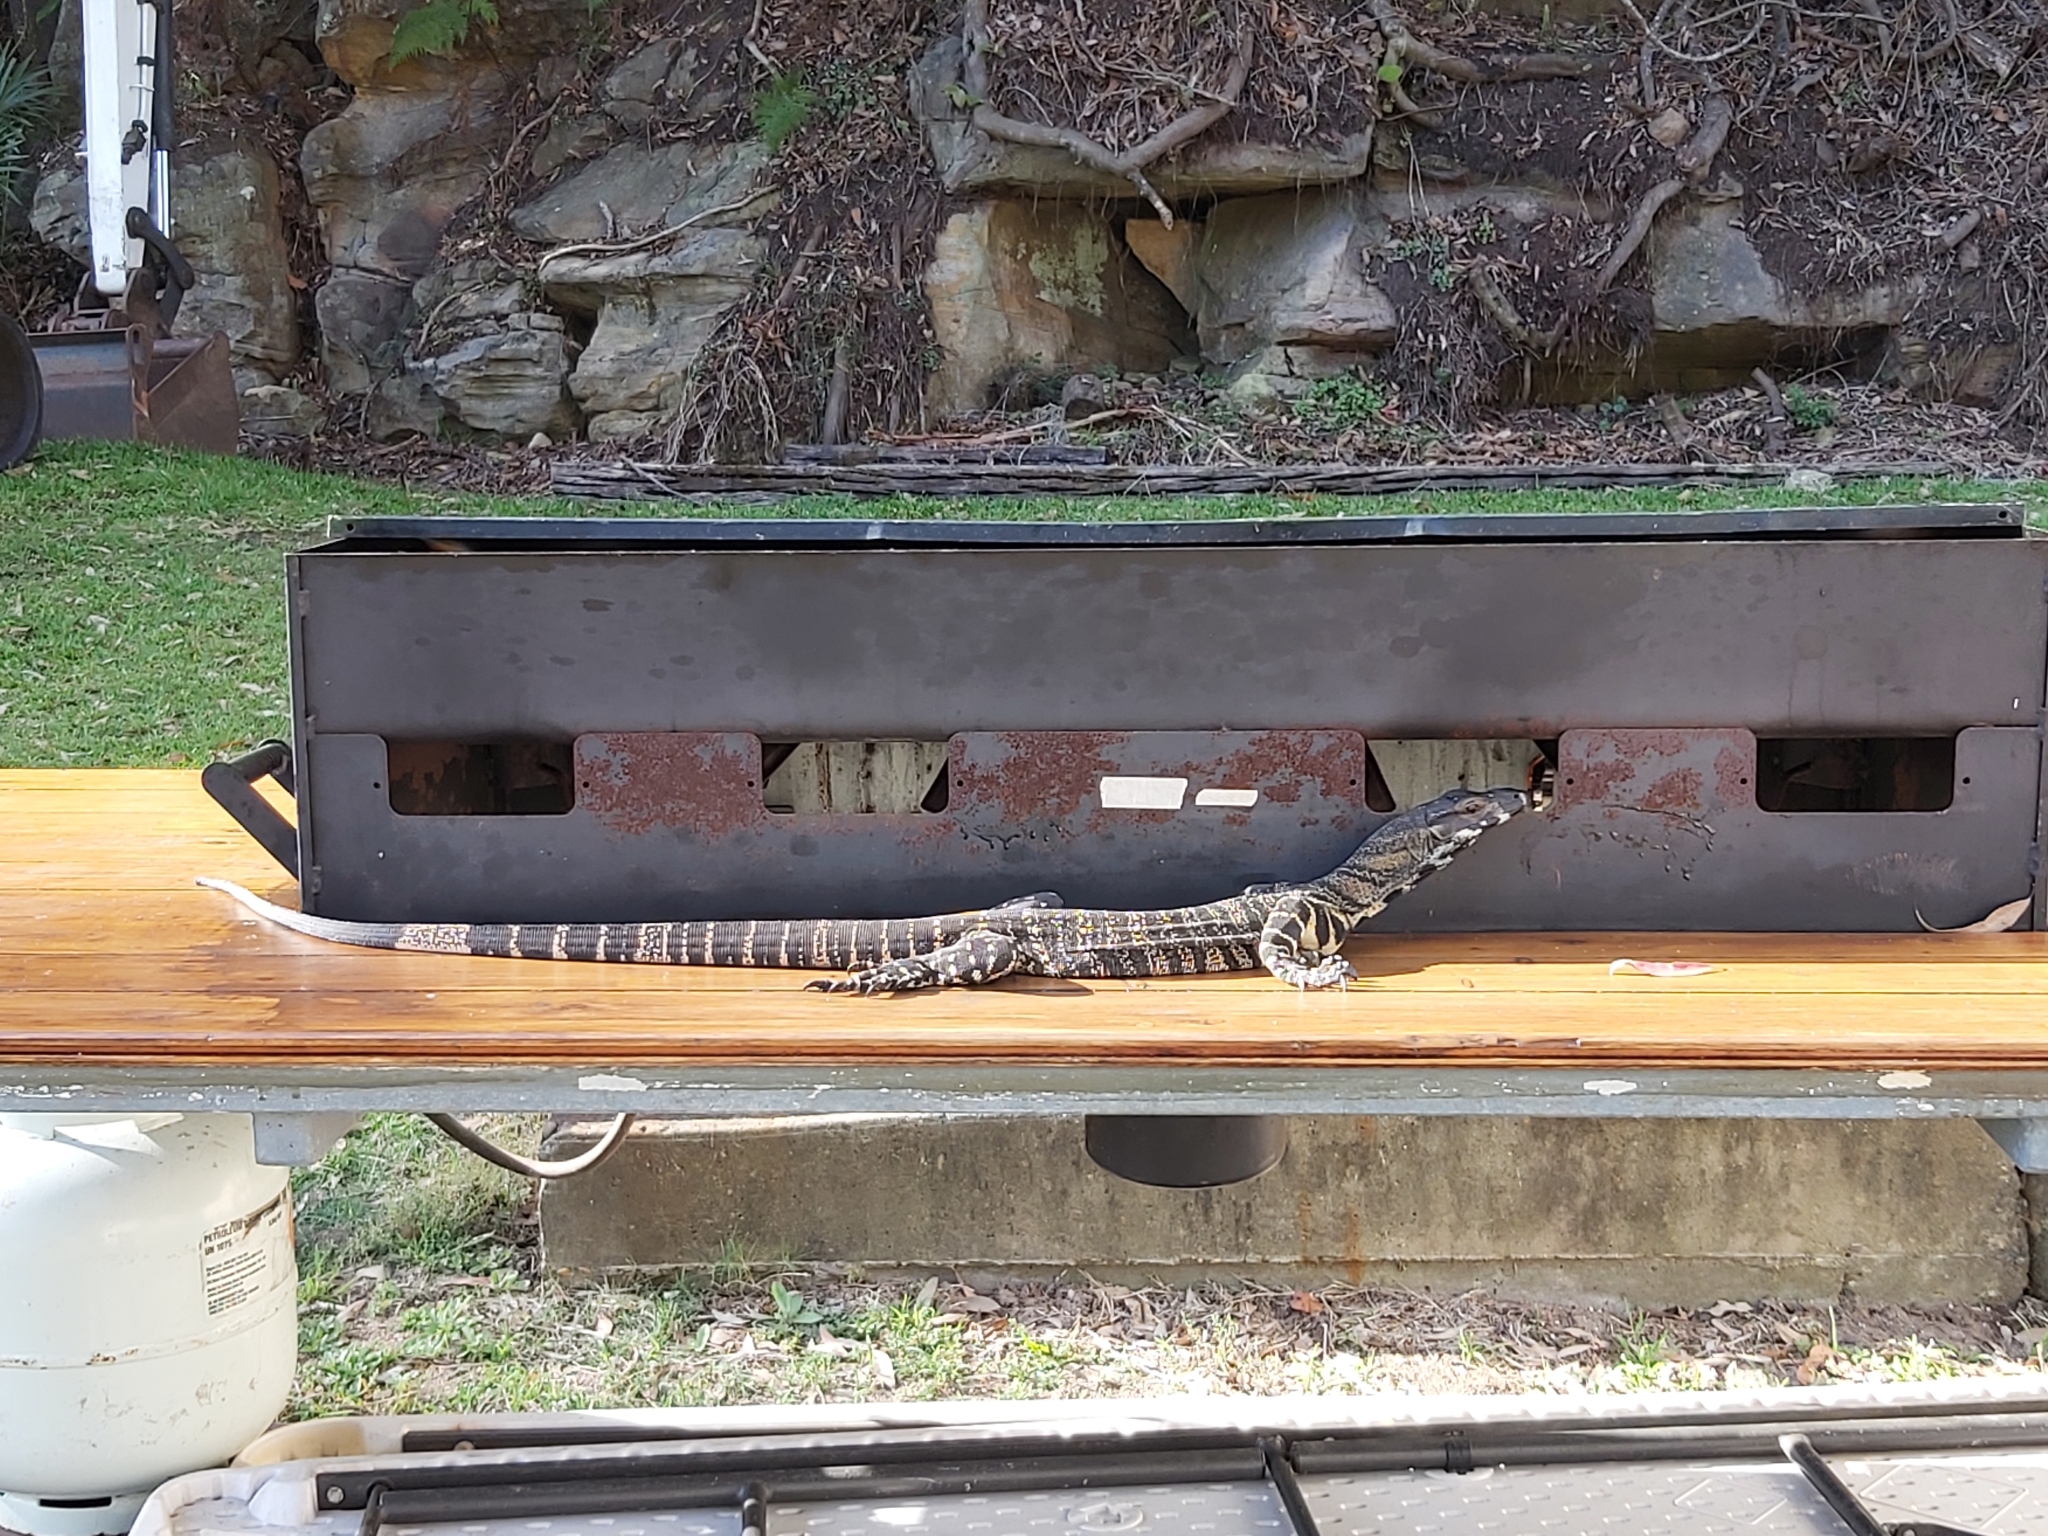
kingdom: Animalia
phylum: Chordata
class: Squamata
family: Varanidae
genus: Varanus
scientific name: Varanus varius
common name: Lace monitor
